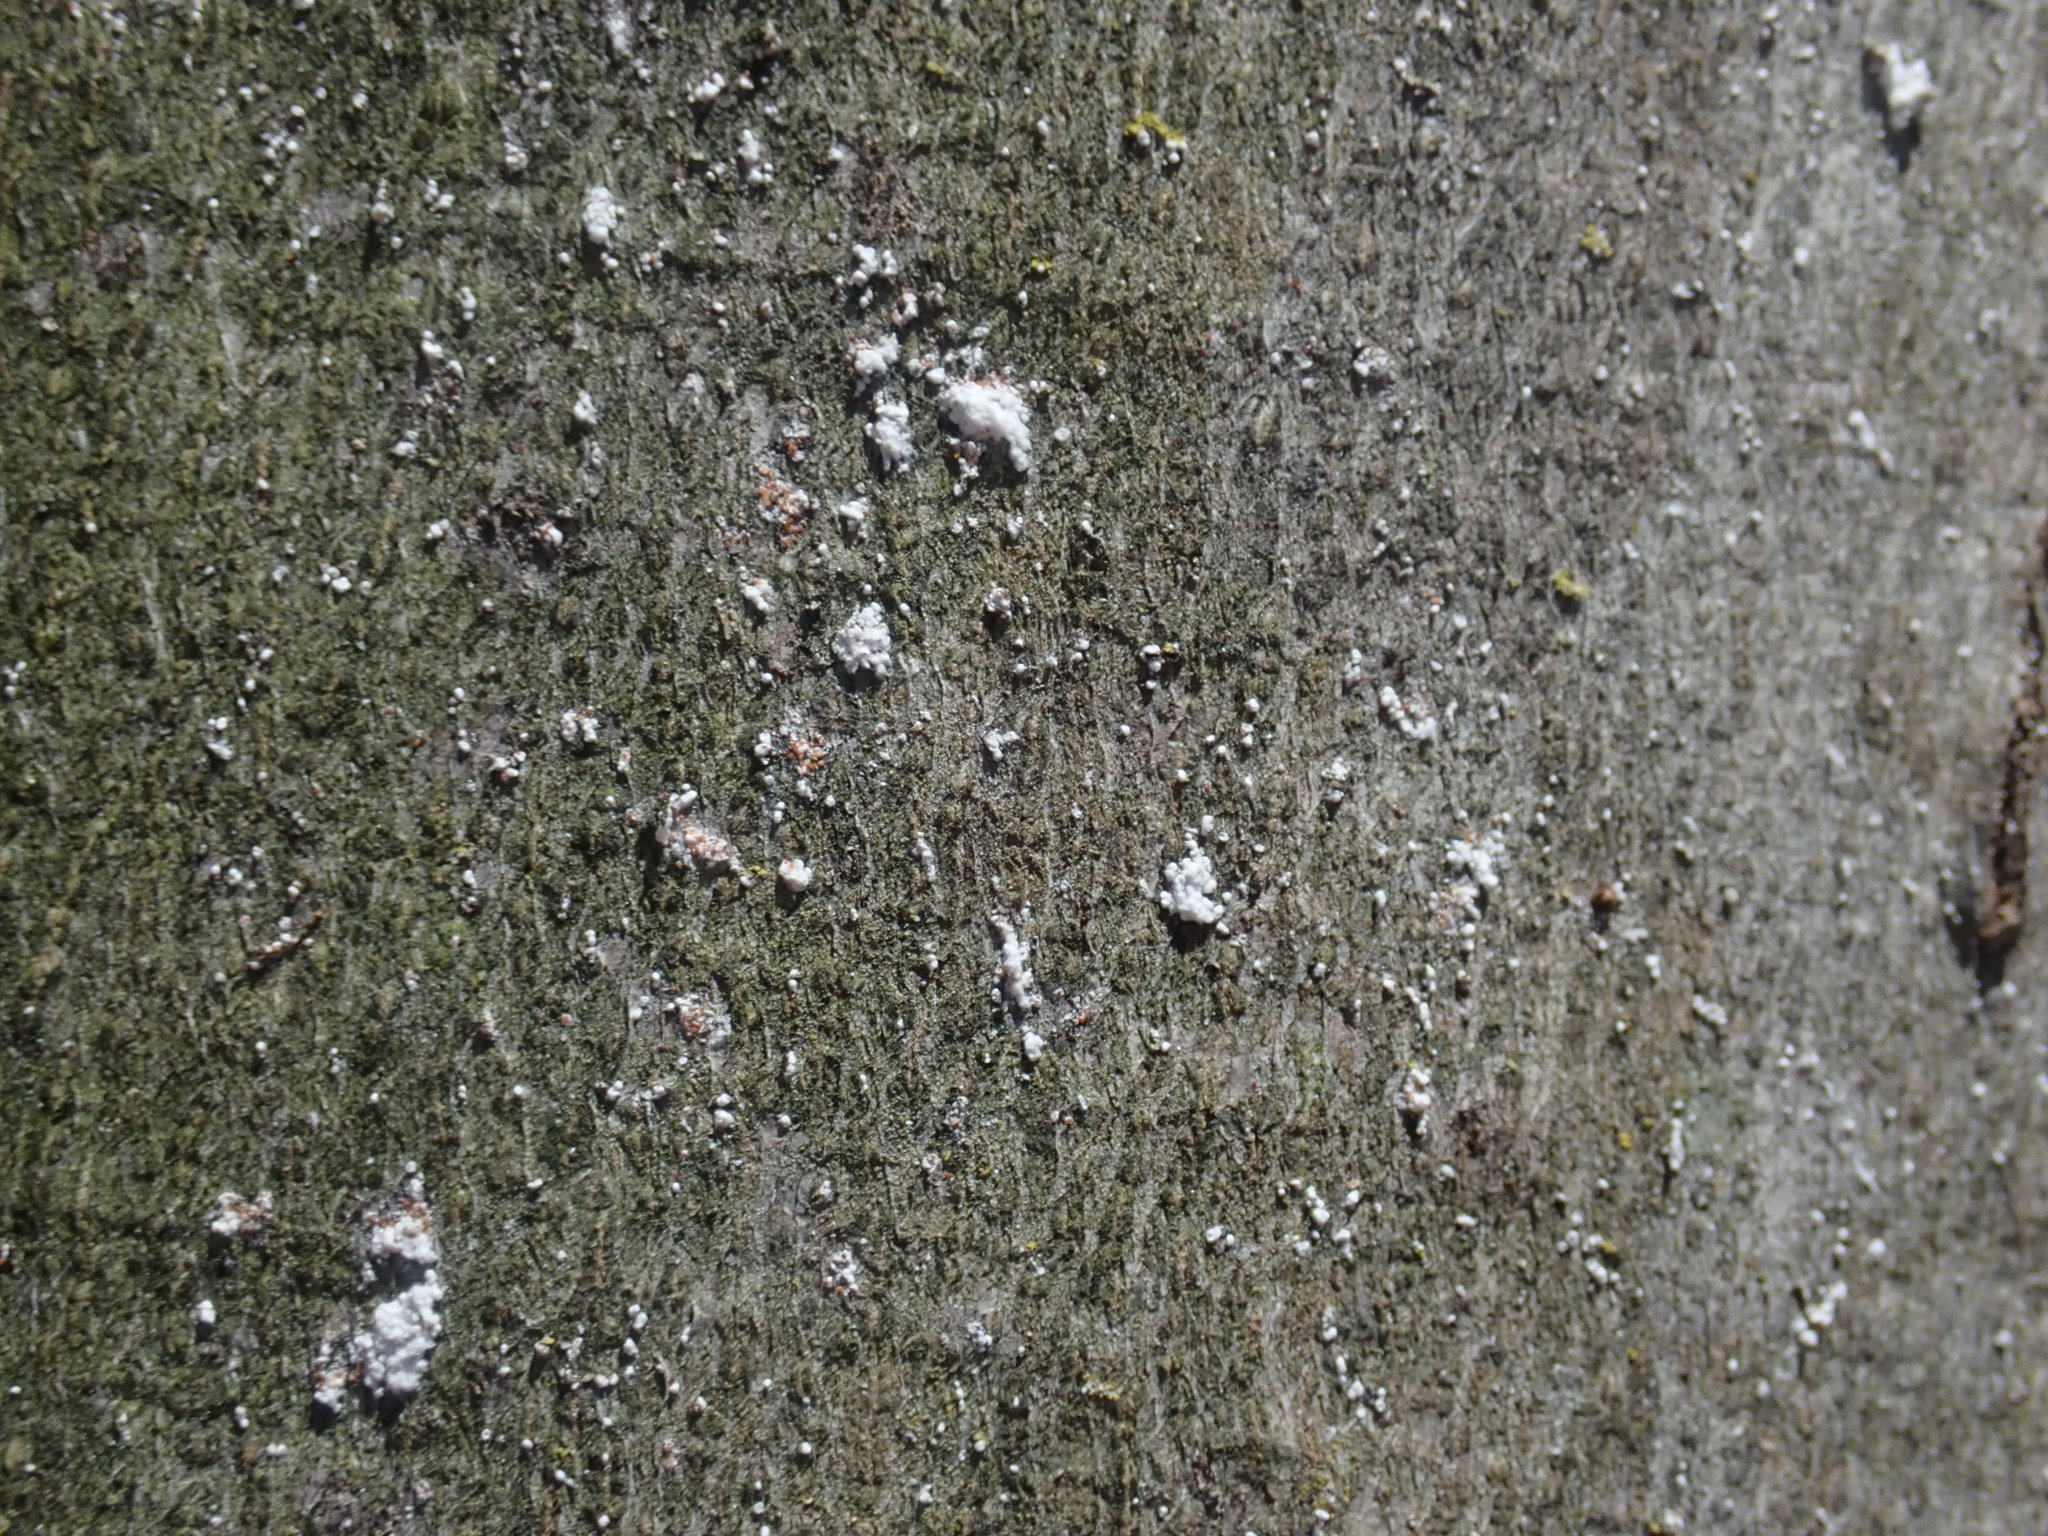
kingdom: Animalia
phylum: Arthropoda
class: Insecta
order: Hemiptera
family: Eriococcidae
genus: Cryptococcus
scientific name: Cryptococcus fagisuga
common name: Beech scale
